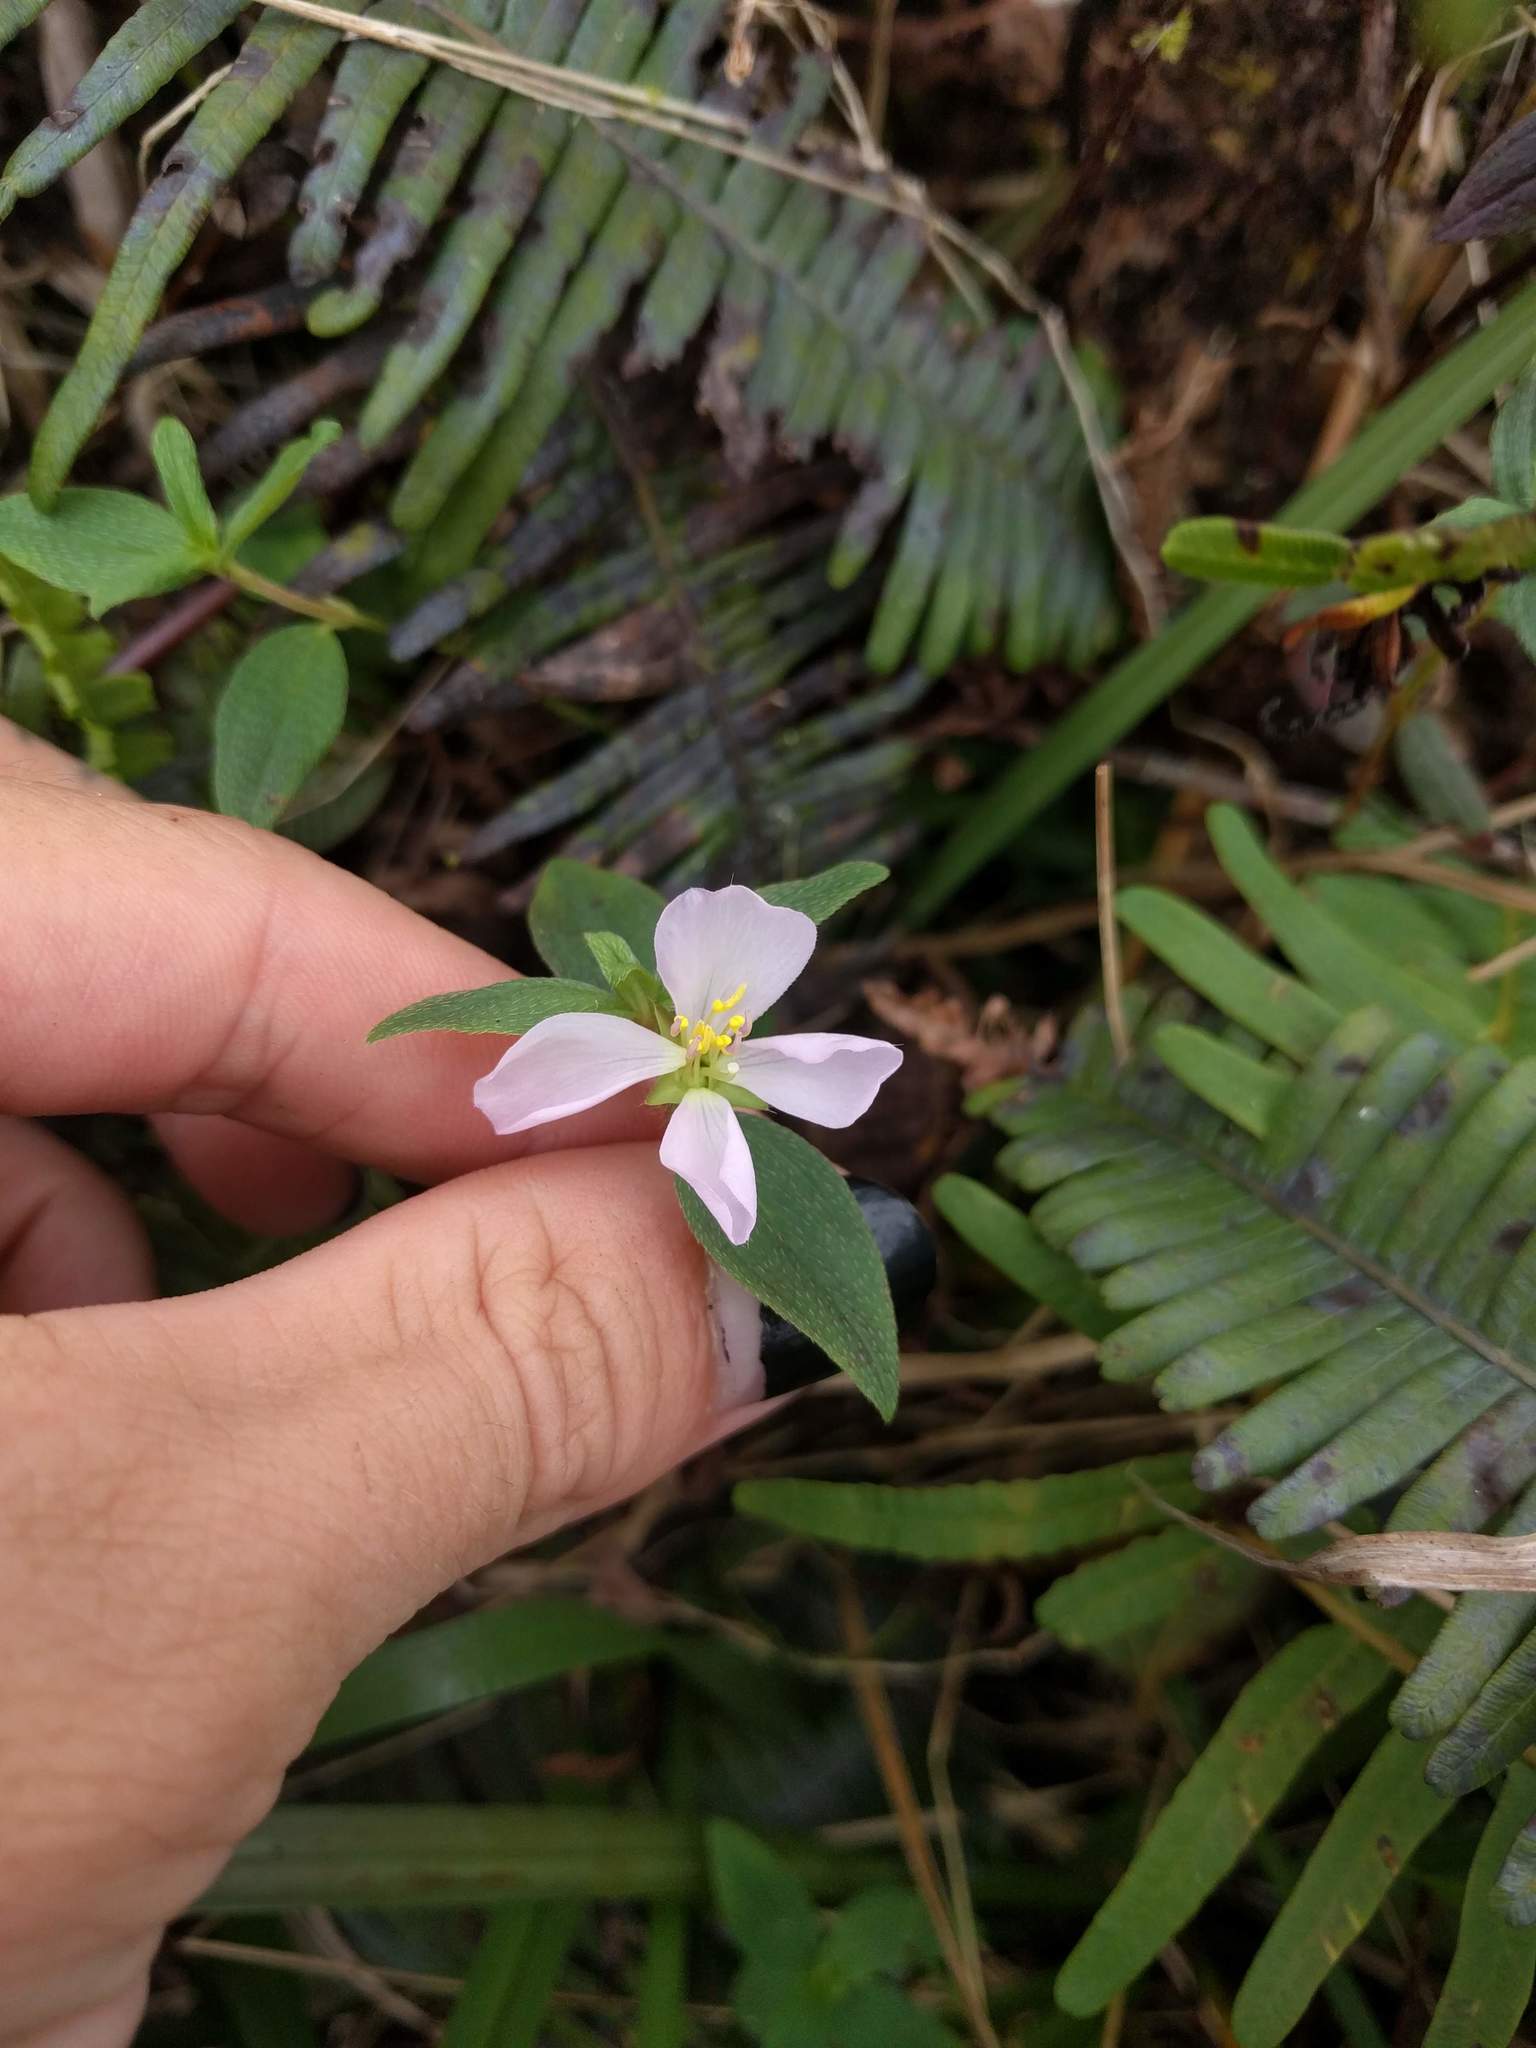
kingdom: Plantae
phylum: Tracheophyta
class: Magnoliopsida
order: Myrtales
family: Melastomataceae
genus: Pterolepis
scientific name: Pterolepis glomerata
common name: False meadowbeauty
